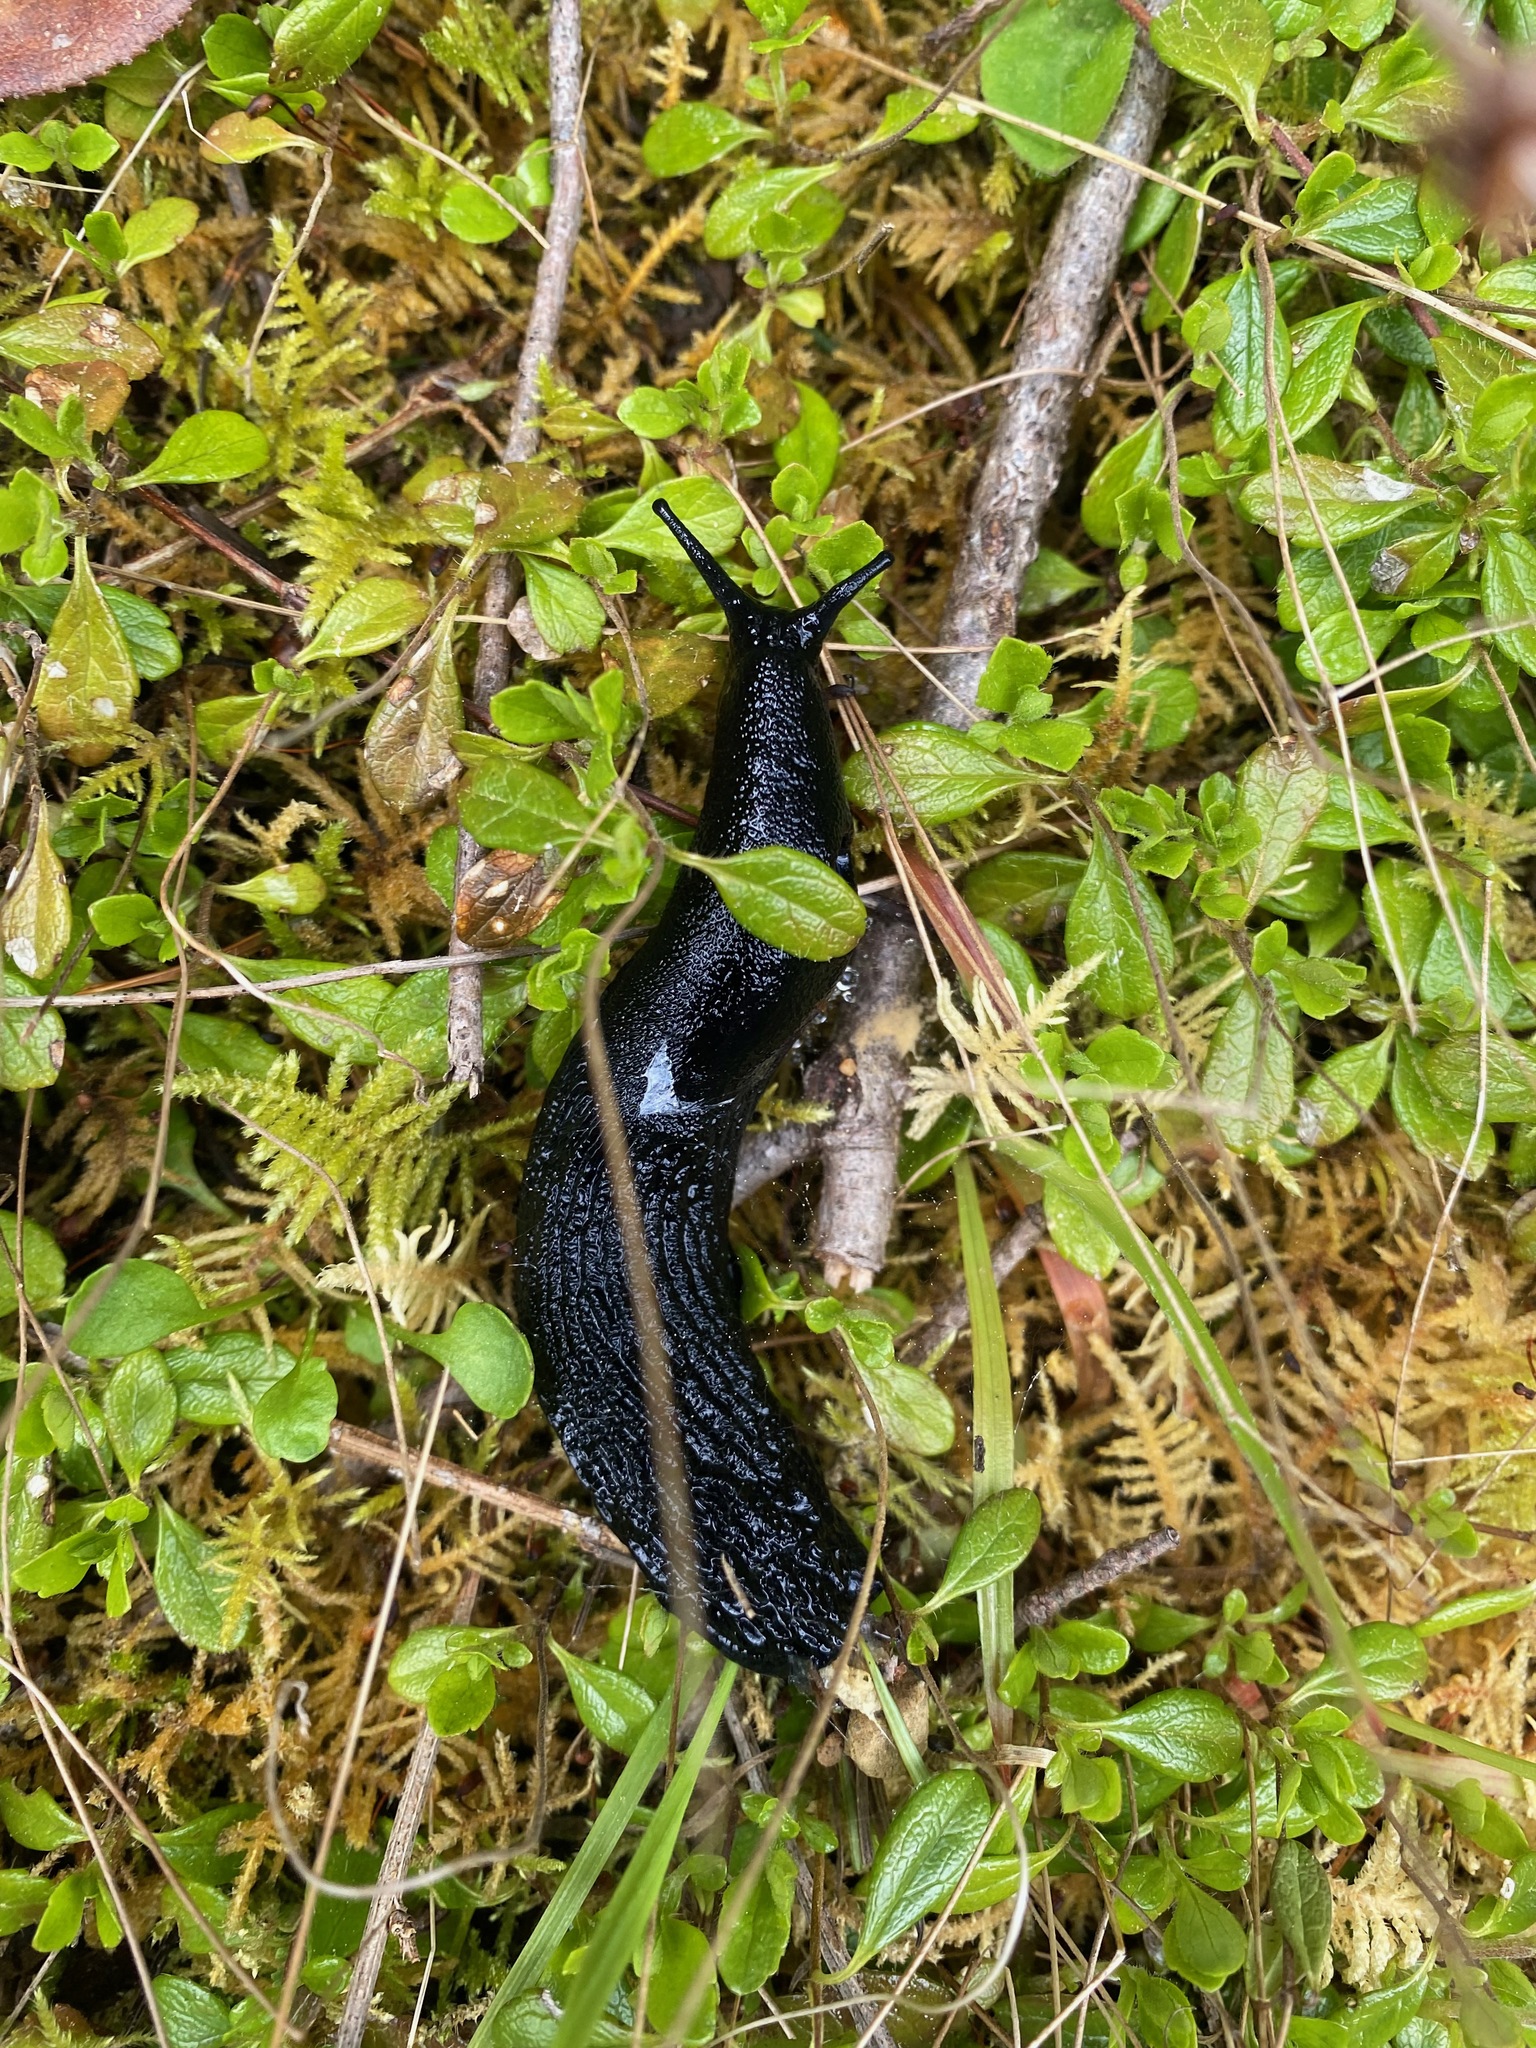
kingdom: Animalia
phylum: Mollusca
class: Gastropoda
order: Stylommatophora
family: Arionidae
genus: Arion
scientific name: Arion
